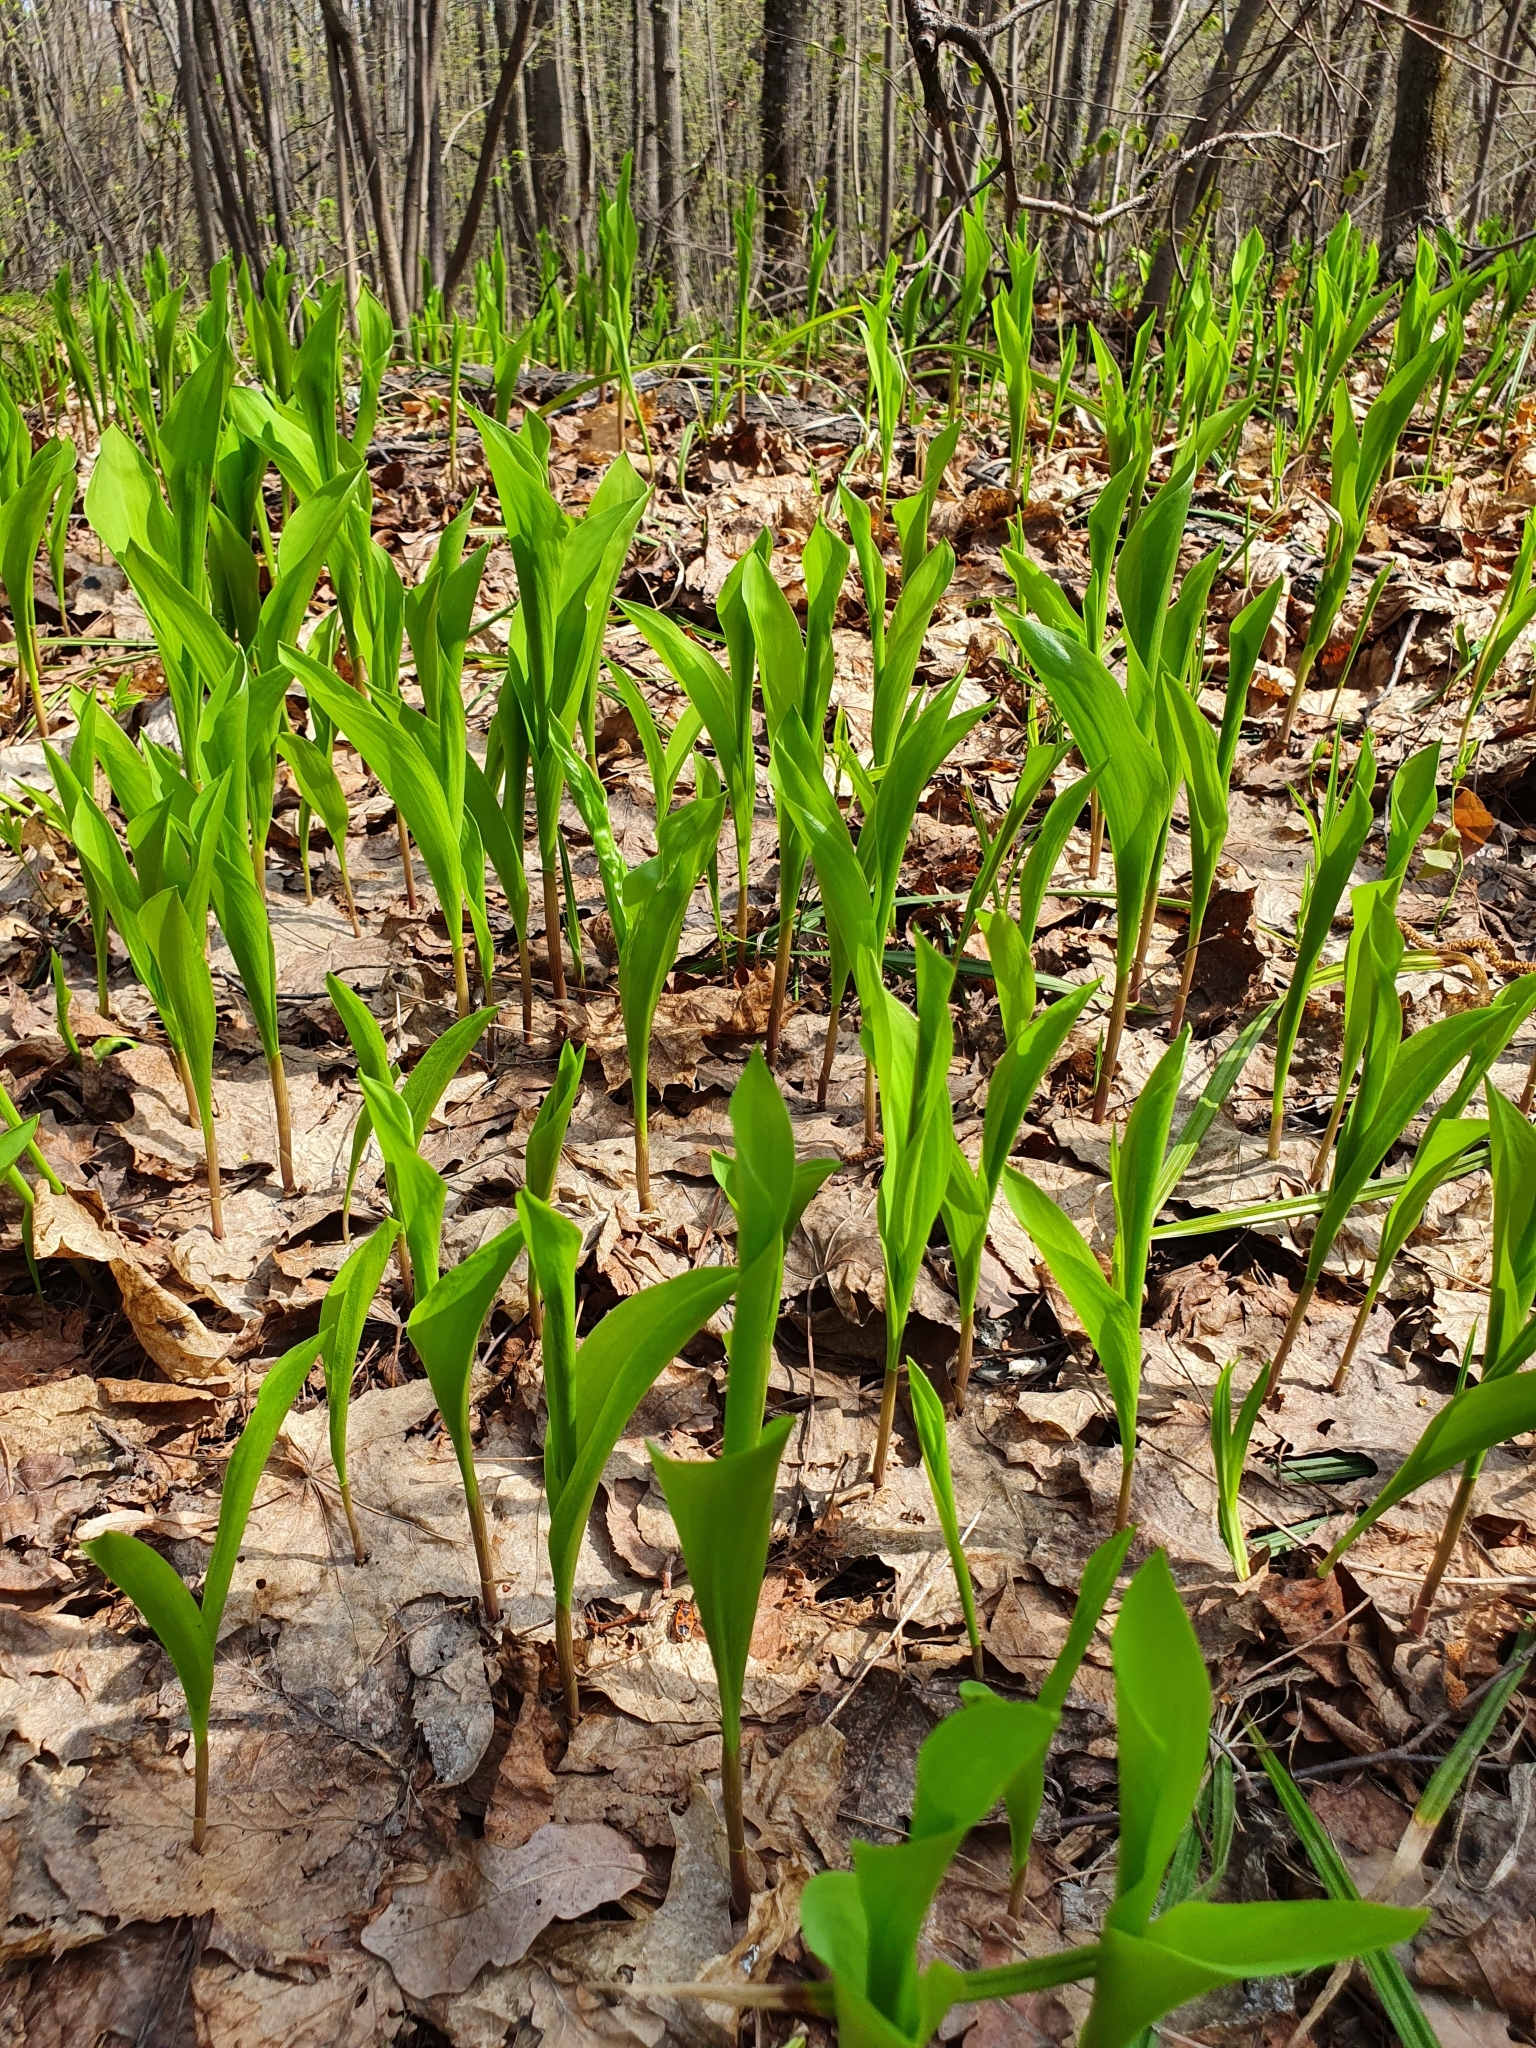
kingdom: Plantae
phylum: Tracheophyta
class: Liliopsida
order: Asparagales
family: Asparagaceae
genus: Convallaria
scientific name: Convallaria majalis
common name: Lily-of-the-valley
